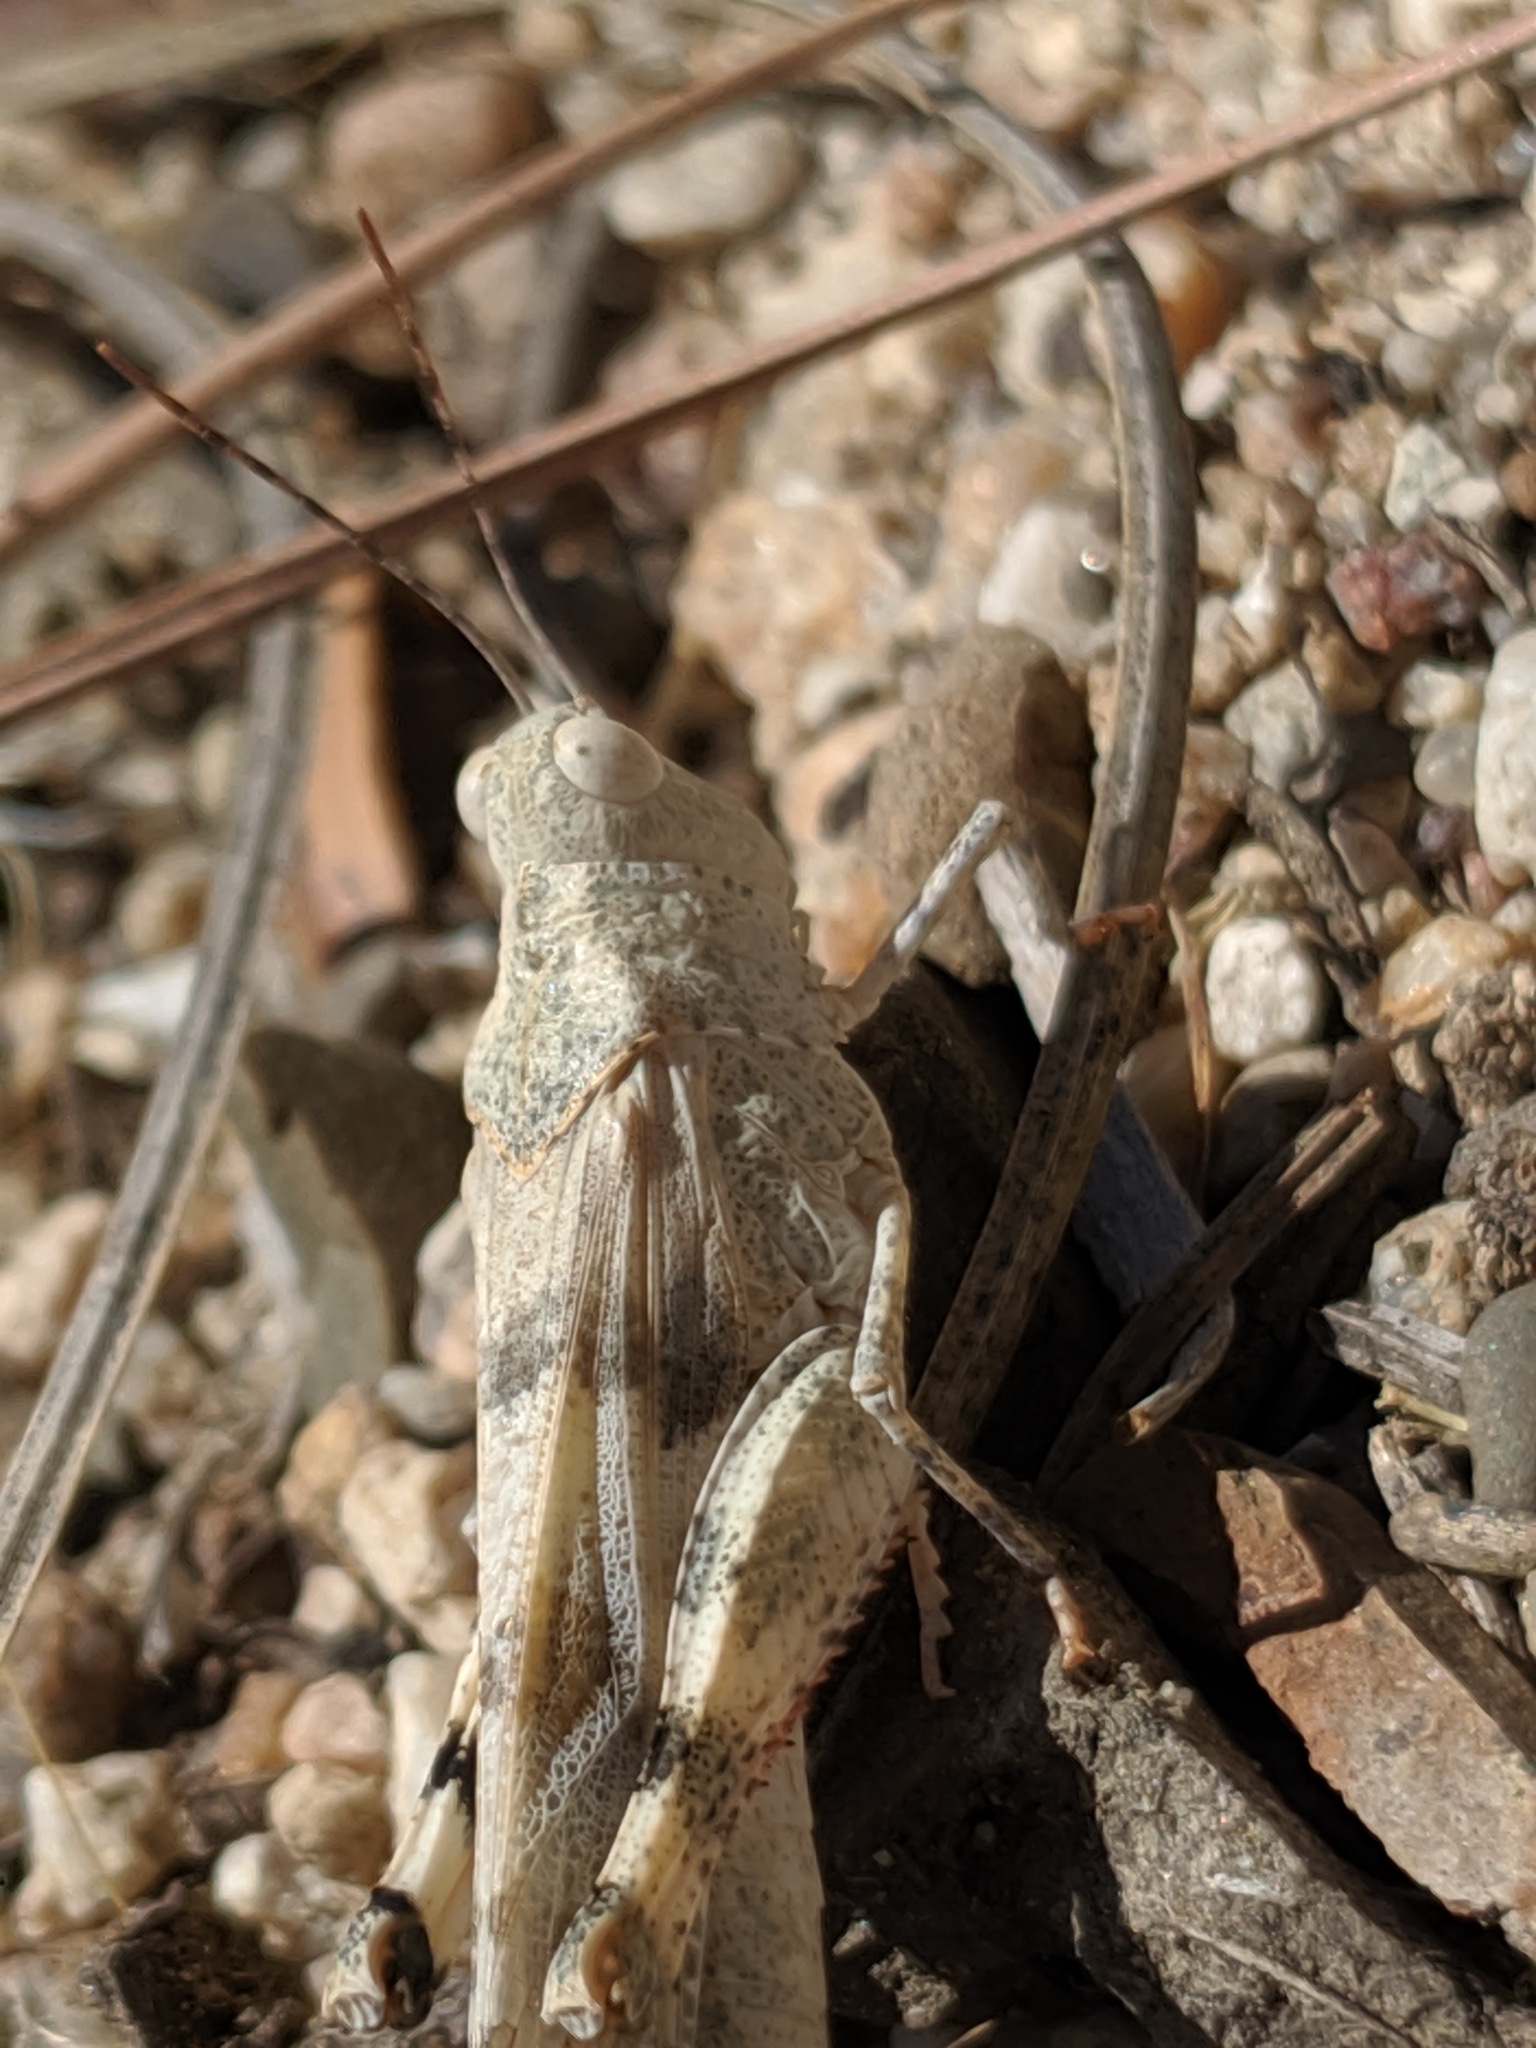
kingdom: Animalia
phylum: Arthropoda
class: Insecta
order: Orthoptera
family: Acrididae
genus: Trimerotropis
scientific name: Trimerotropis californica
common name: California band-winged grasshopper
